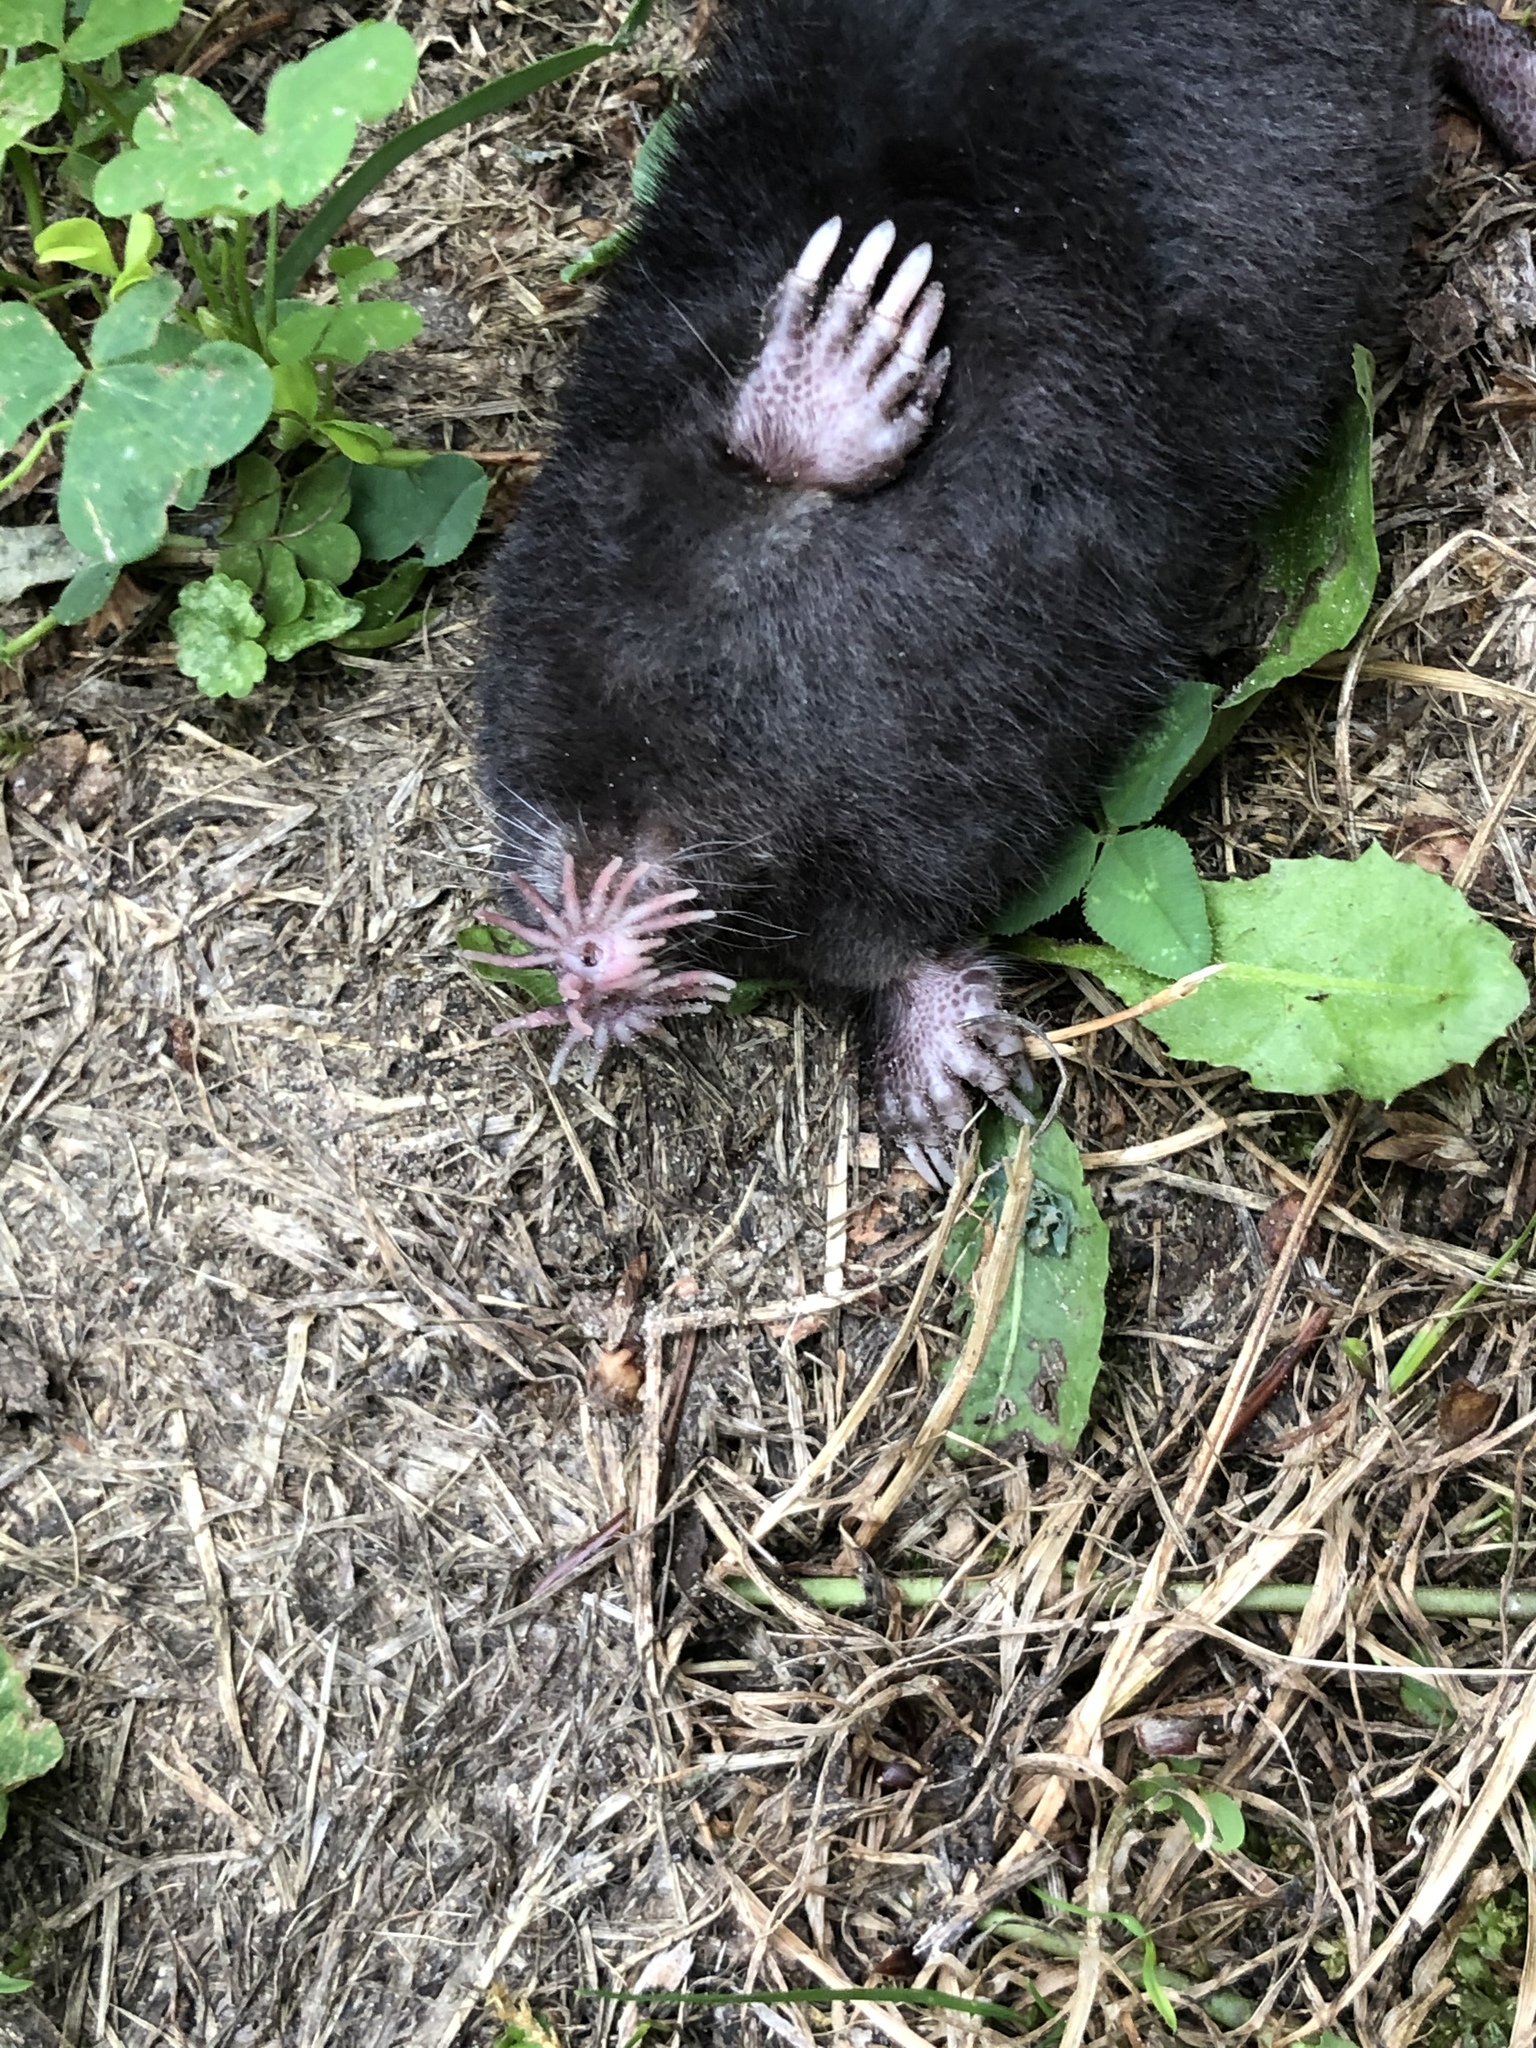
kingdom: Animalia
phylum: Chordata
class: Mammalia
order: Soricomorpha
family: Talpidae
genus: Condylura
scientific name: Condylura cristata
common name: Star-nosed mole
